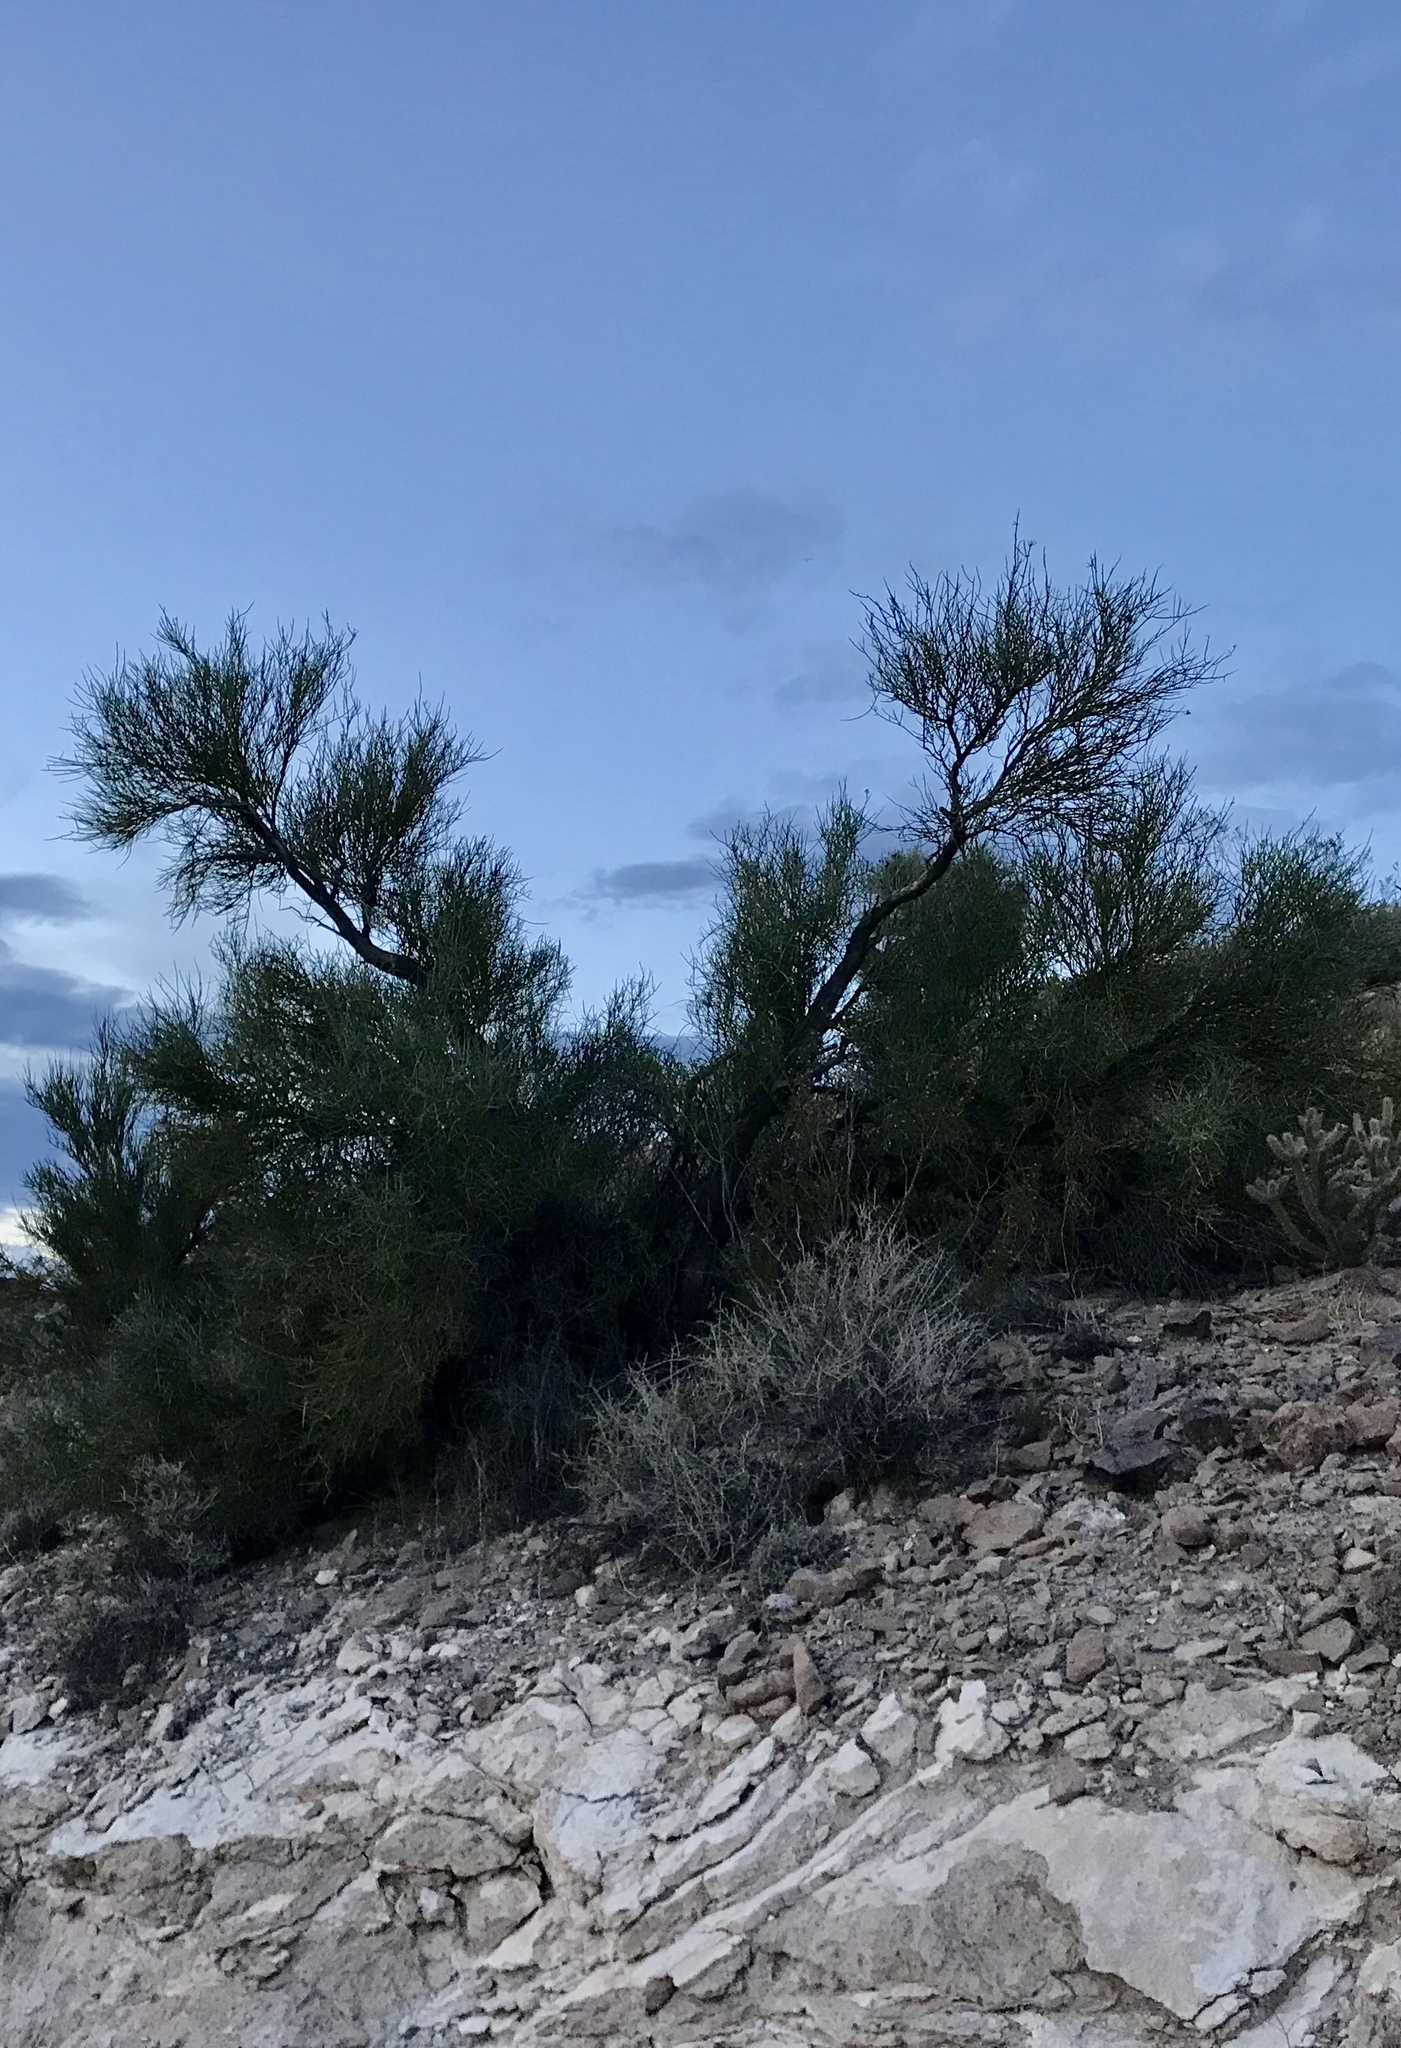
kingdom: Plantae
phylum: Tracheophyta
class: Magnoliopsida
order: Celastrales
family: Celastraceae
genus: Canotia
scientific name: Canotia holacantha
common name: Crucifixion thorns
